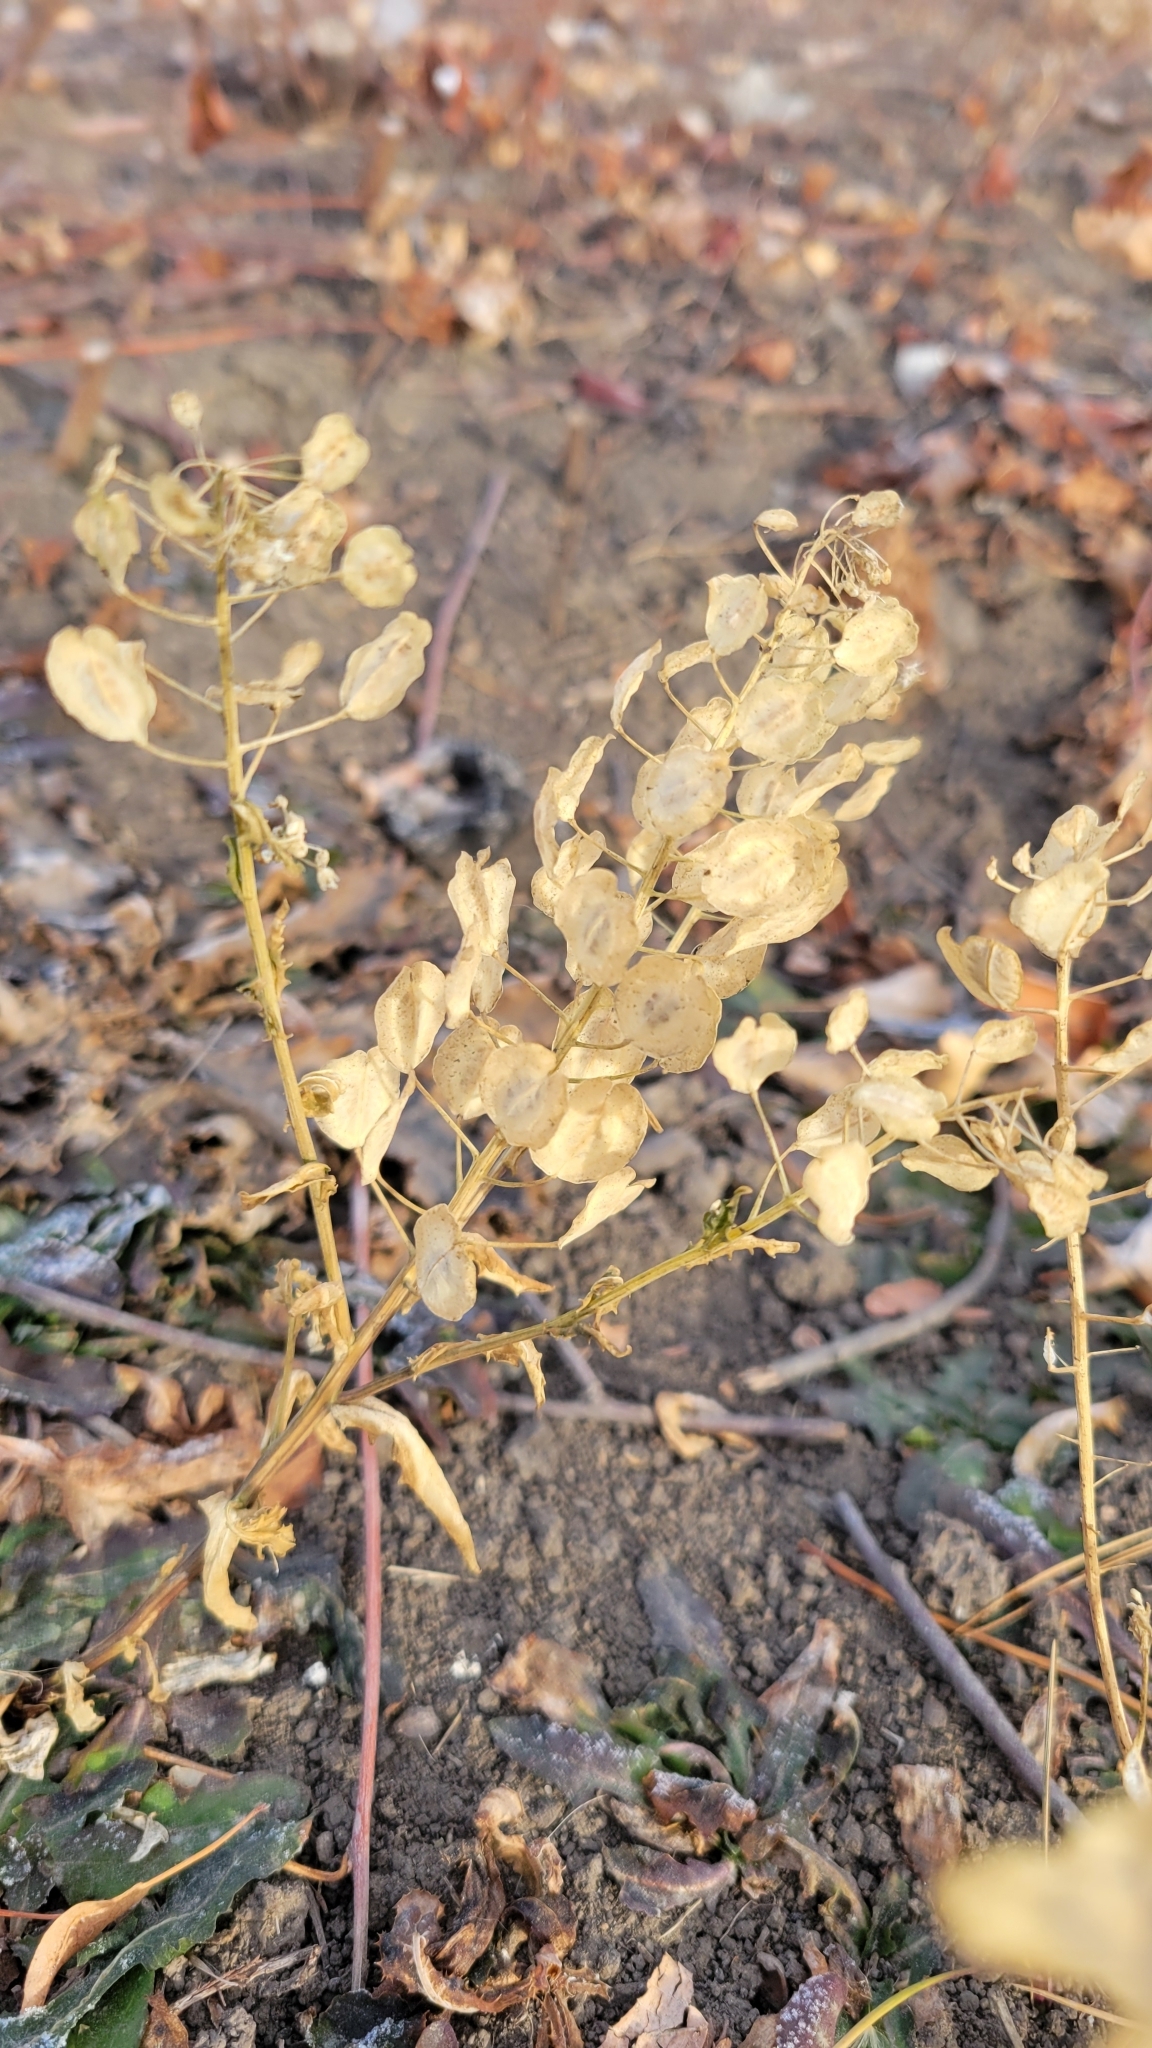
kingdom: Plantae
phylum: Tracheophyta
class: Magnoliopsida
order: Brassicales
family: Brassicaceae
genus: Thlaspi
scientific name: Thlaspi arvense
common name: Field pennycress
